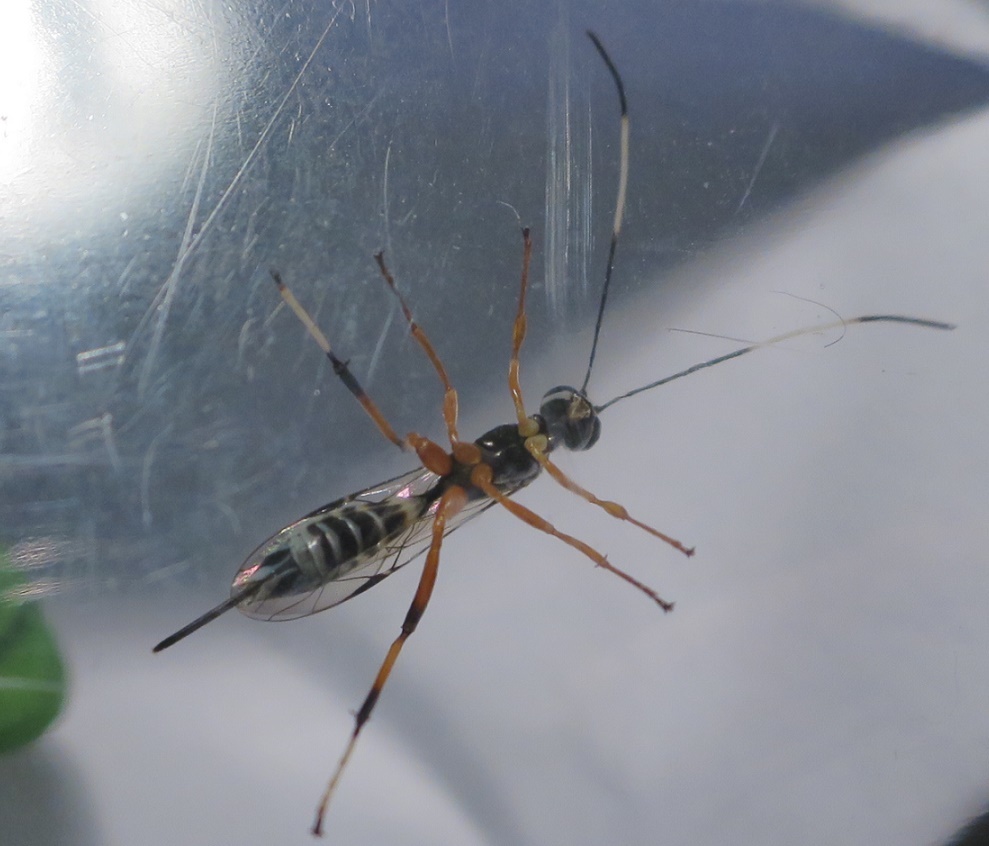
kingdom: Animalia
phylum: Arthropoda
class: Insecta
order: Hymenoptera
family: Ichneumonidae
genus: Xanthocryptus
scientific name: Xanthocryptus novozealandicus
